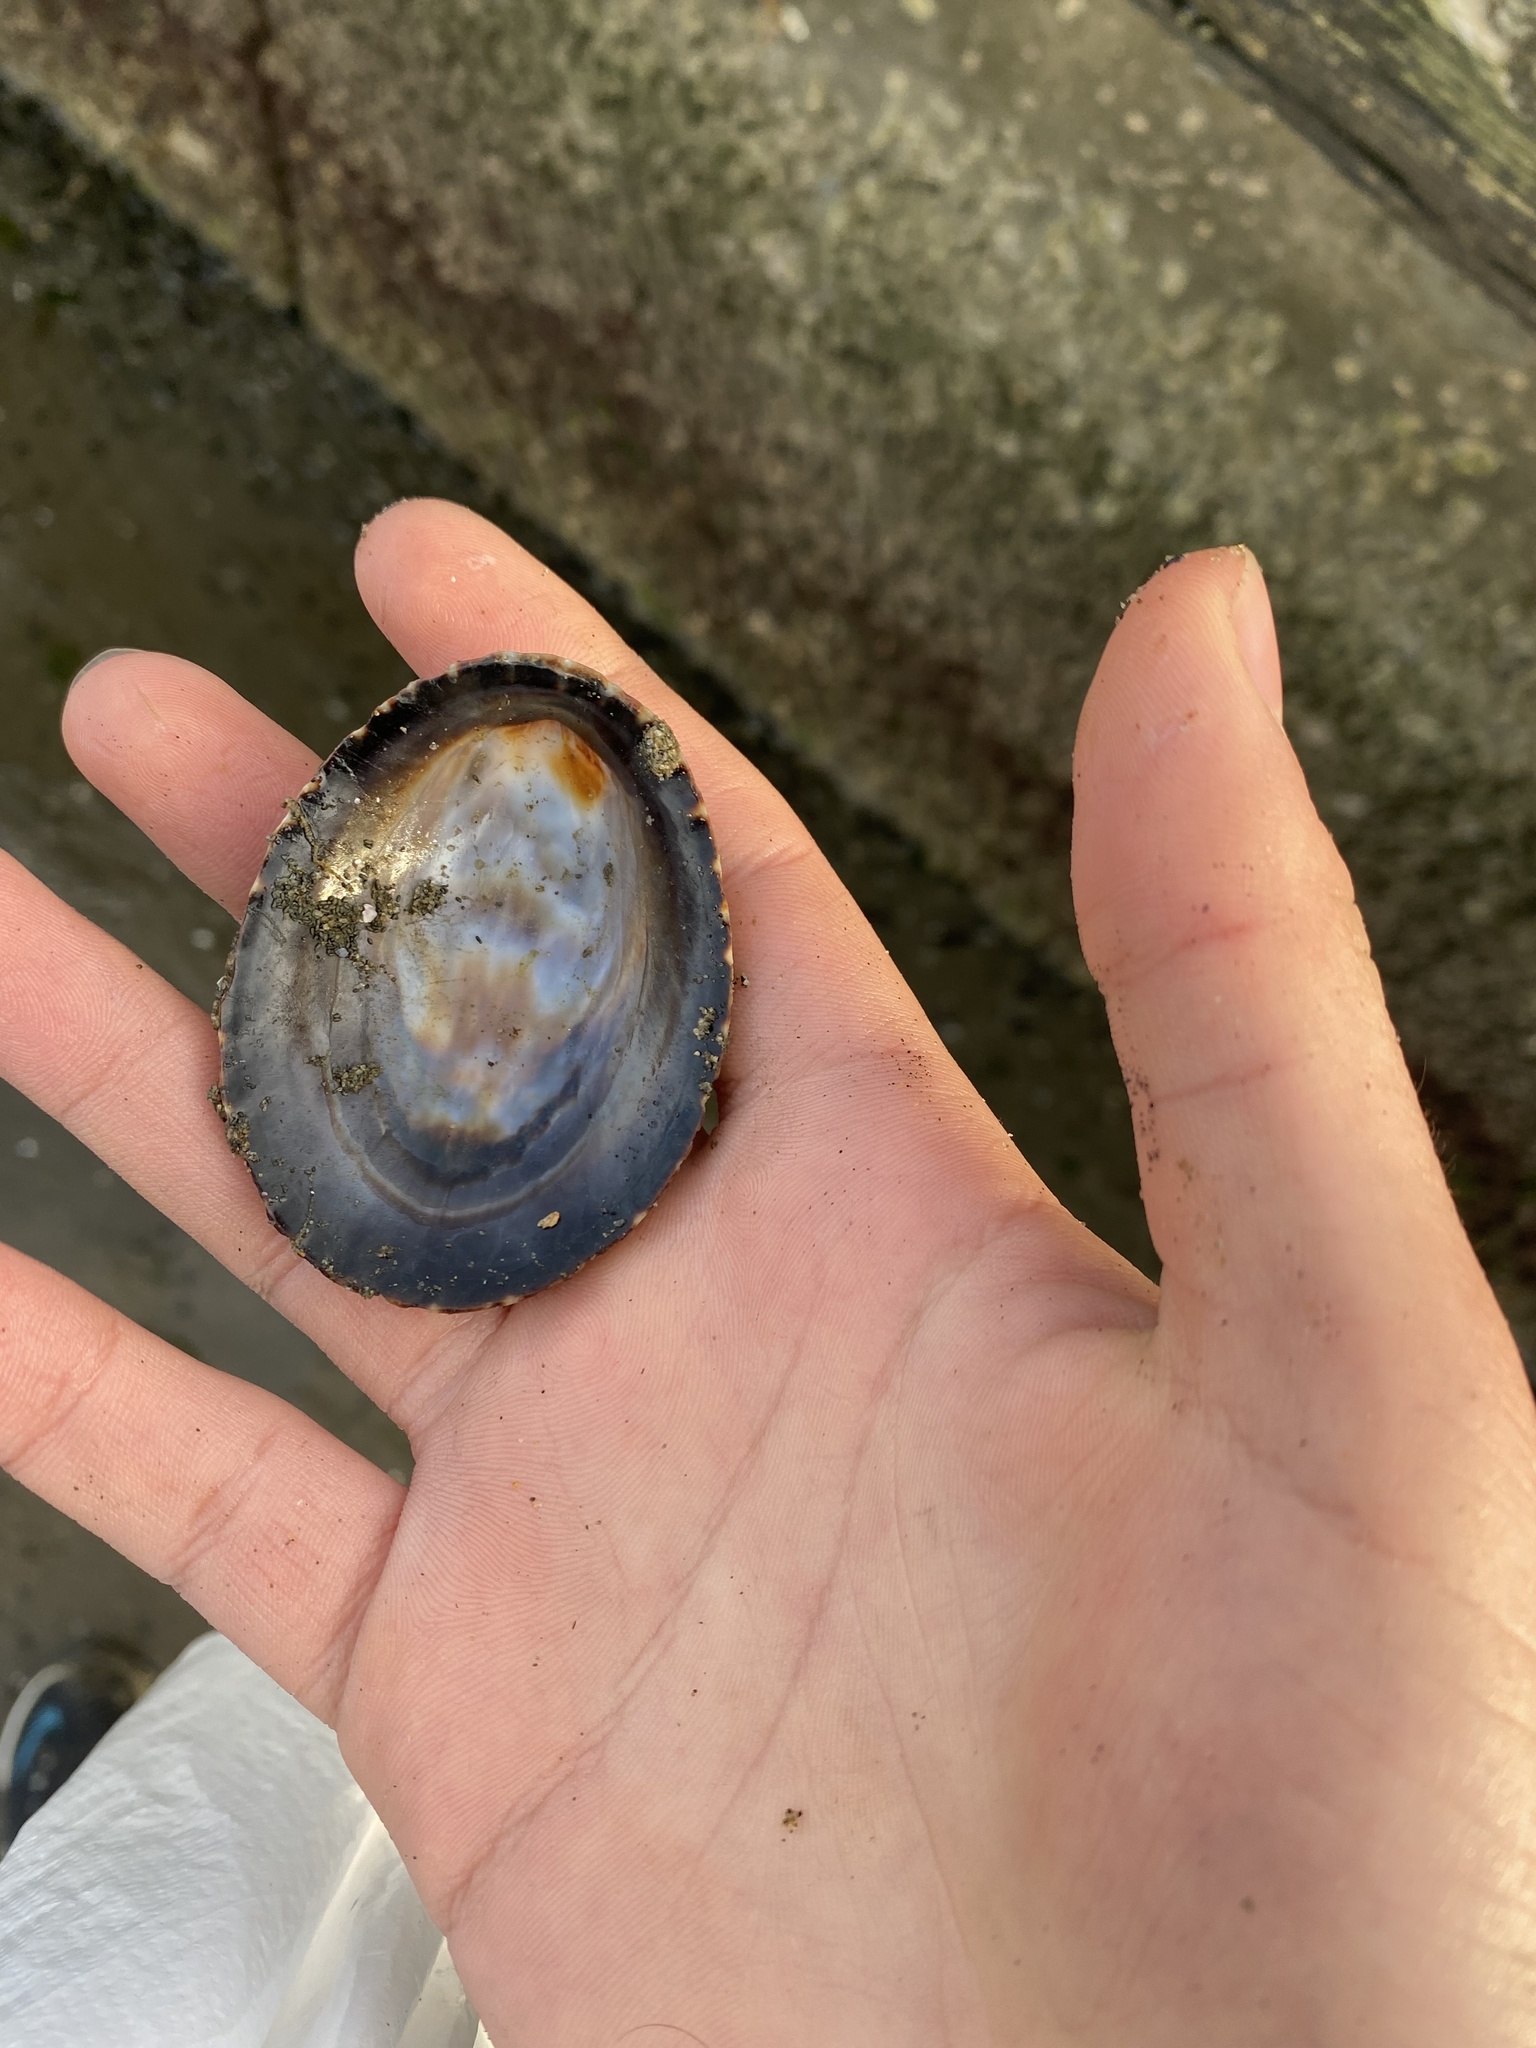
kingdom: Animalia
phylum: Mollusca
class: Gastropoda
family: Lottiidae
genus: Lottia
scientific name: Lottia gigantea
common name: Owl limpet
